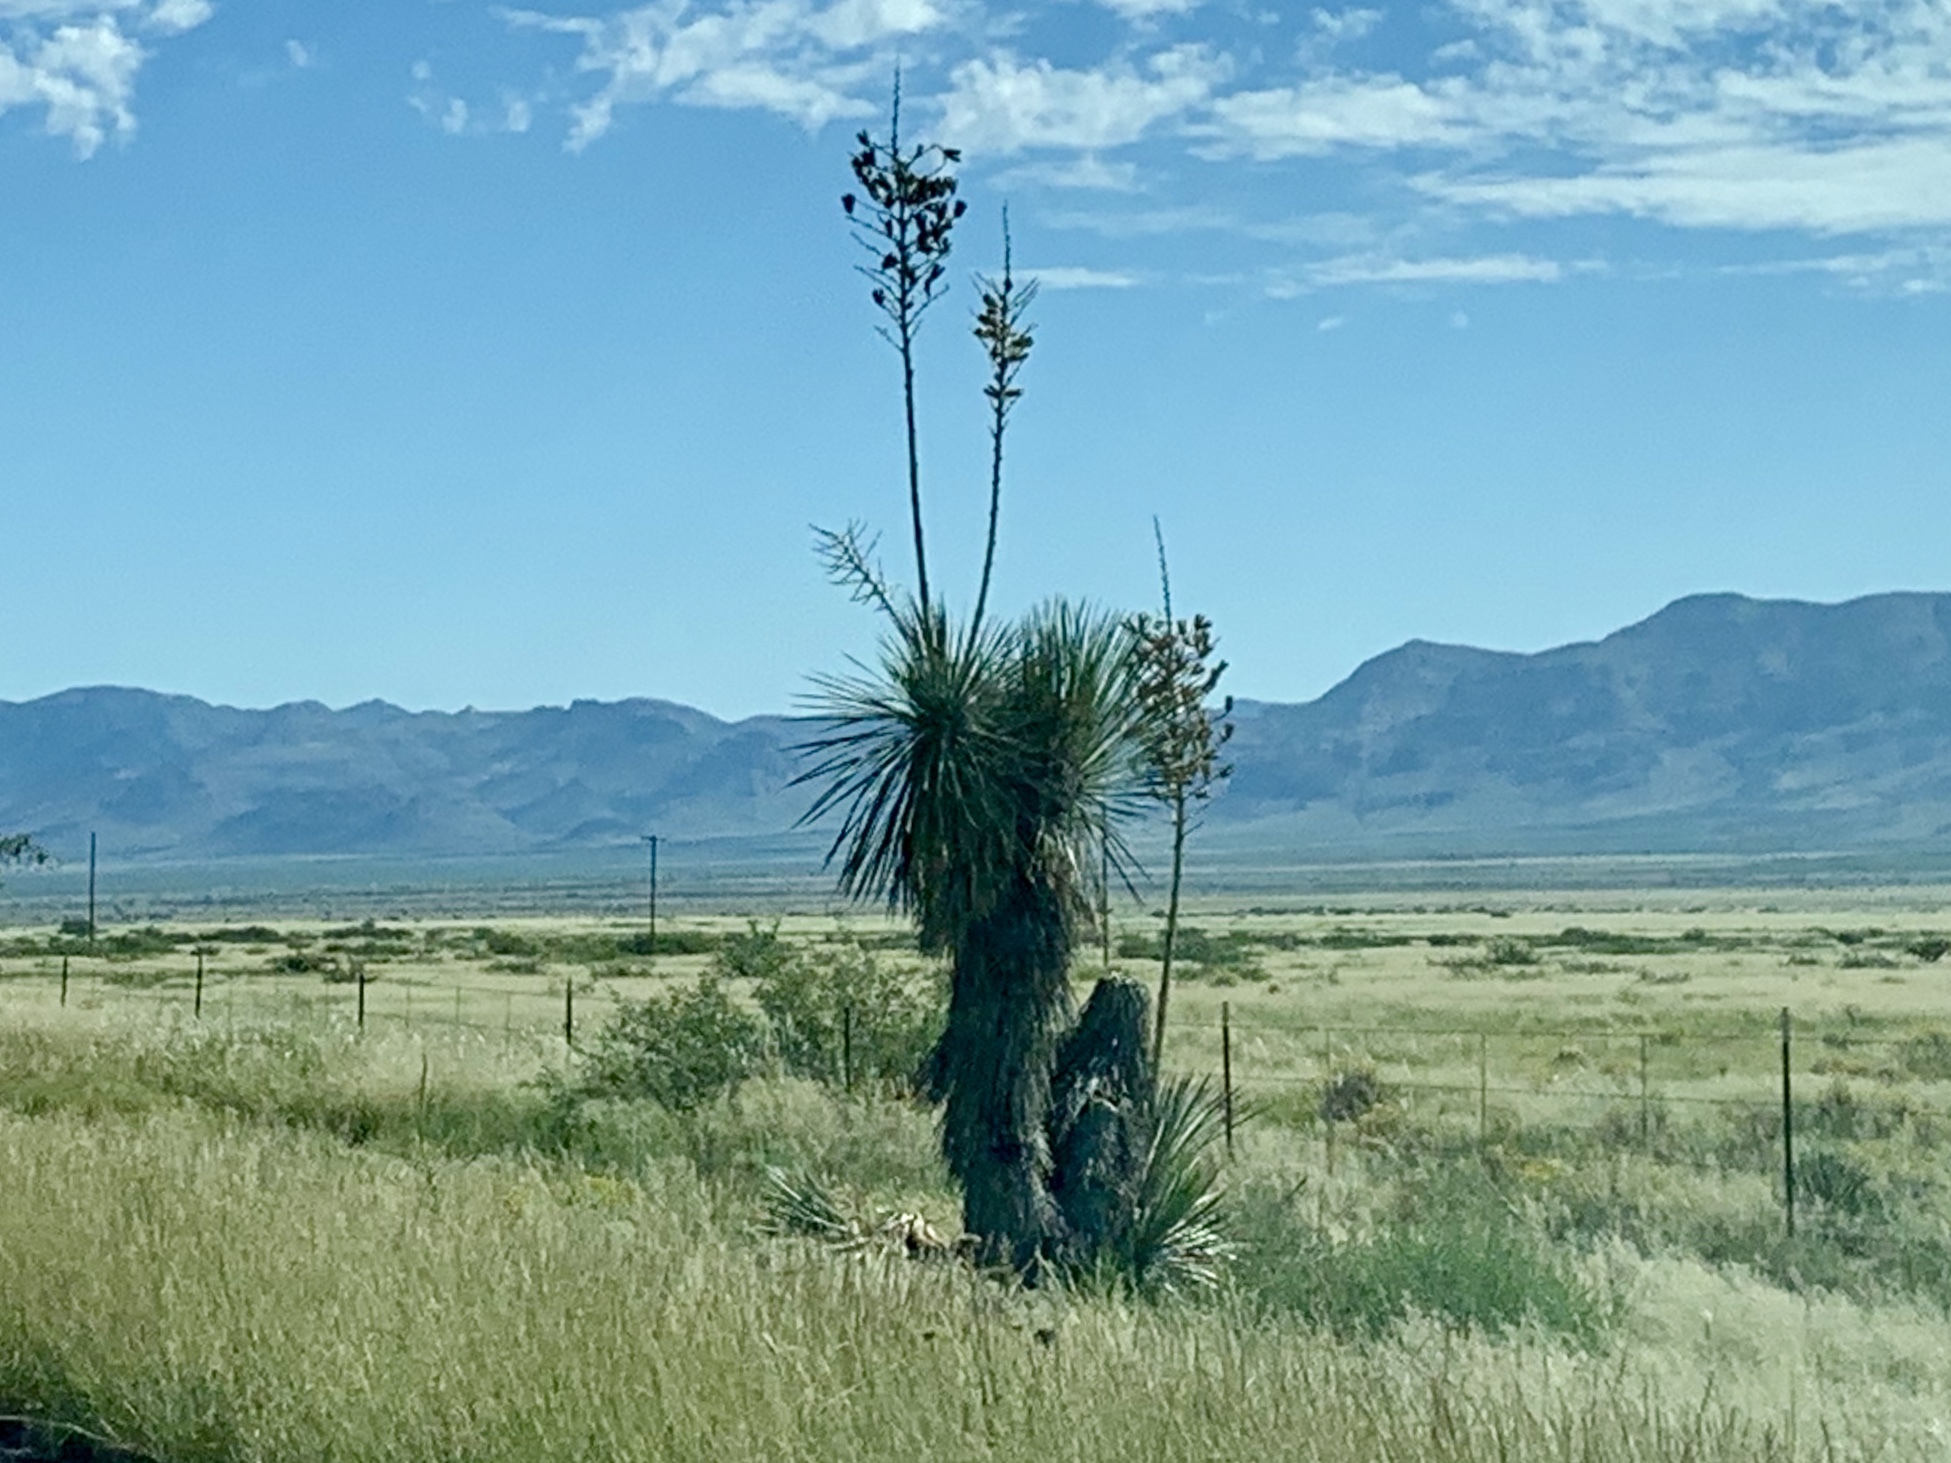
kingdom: Plantae
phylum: Tracheophyta
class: Liliopsida
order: Asparagales
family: Asparagaceae
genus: Yucca
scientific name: Yucca elata
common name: Palmella
